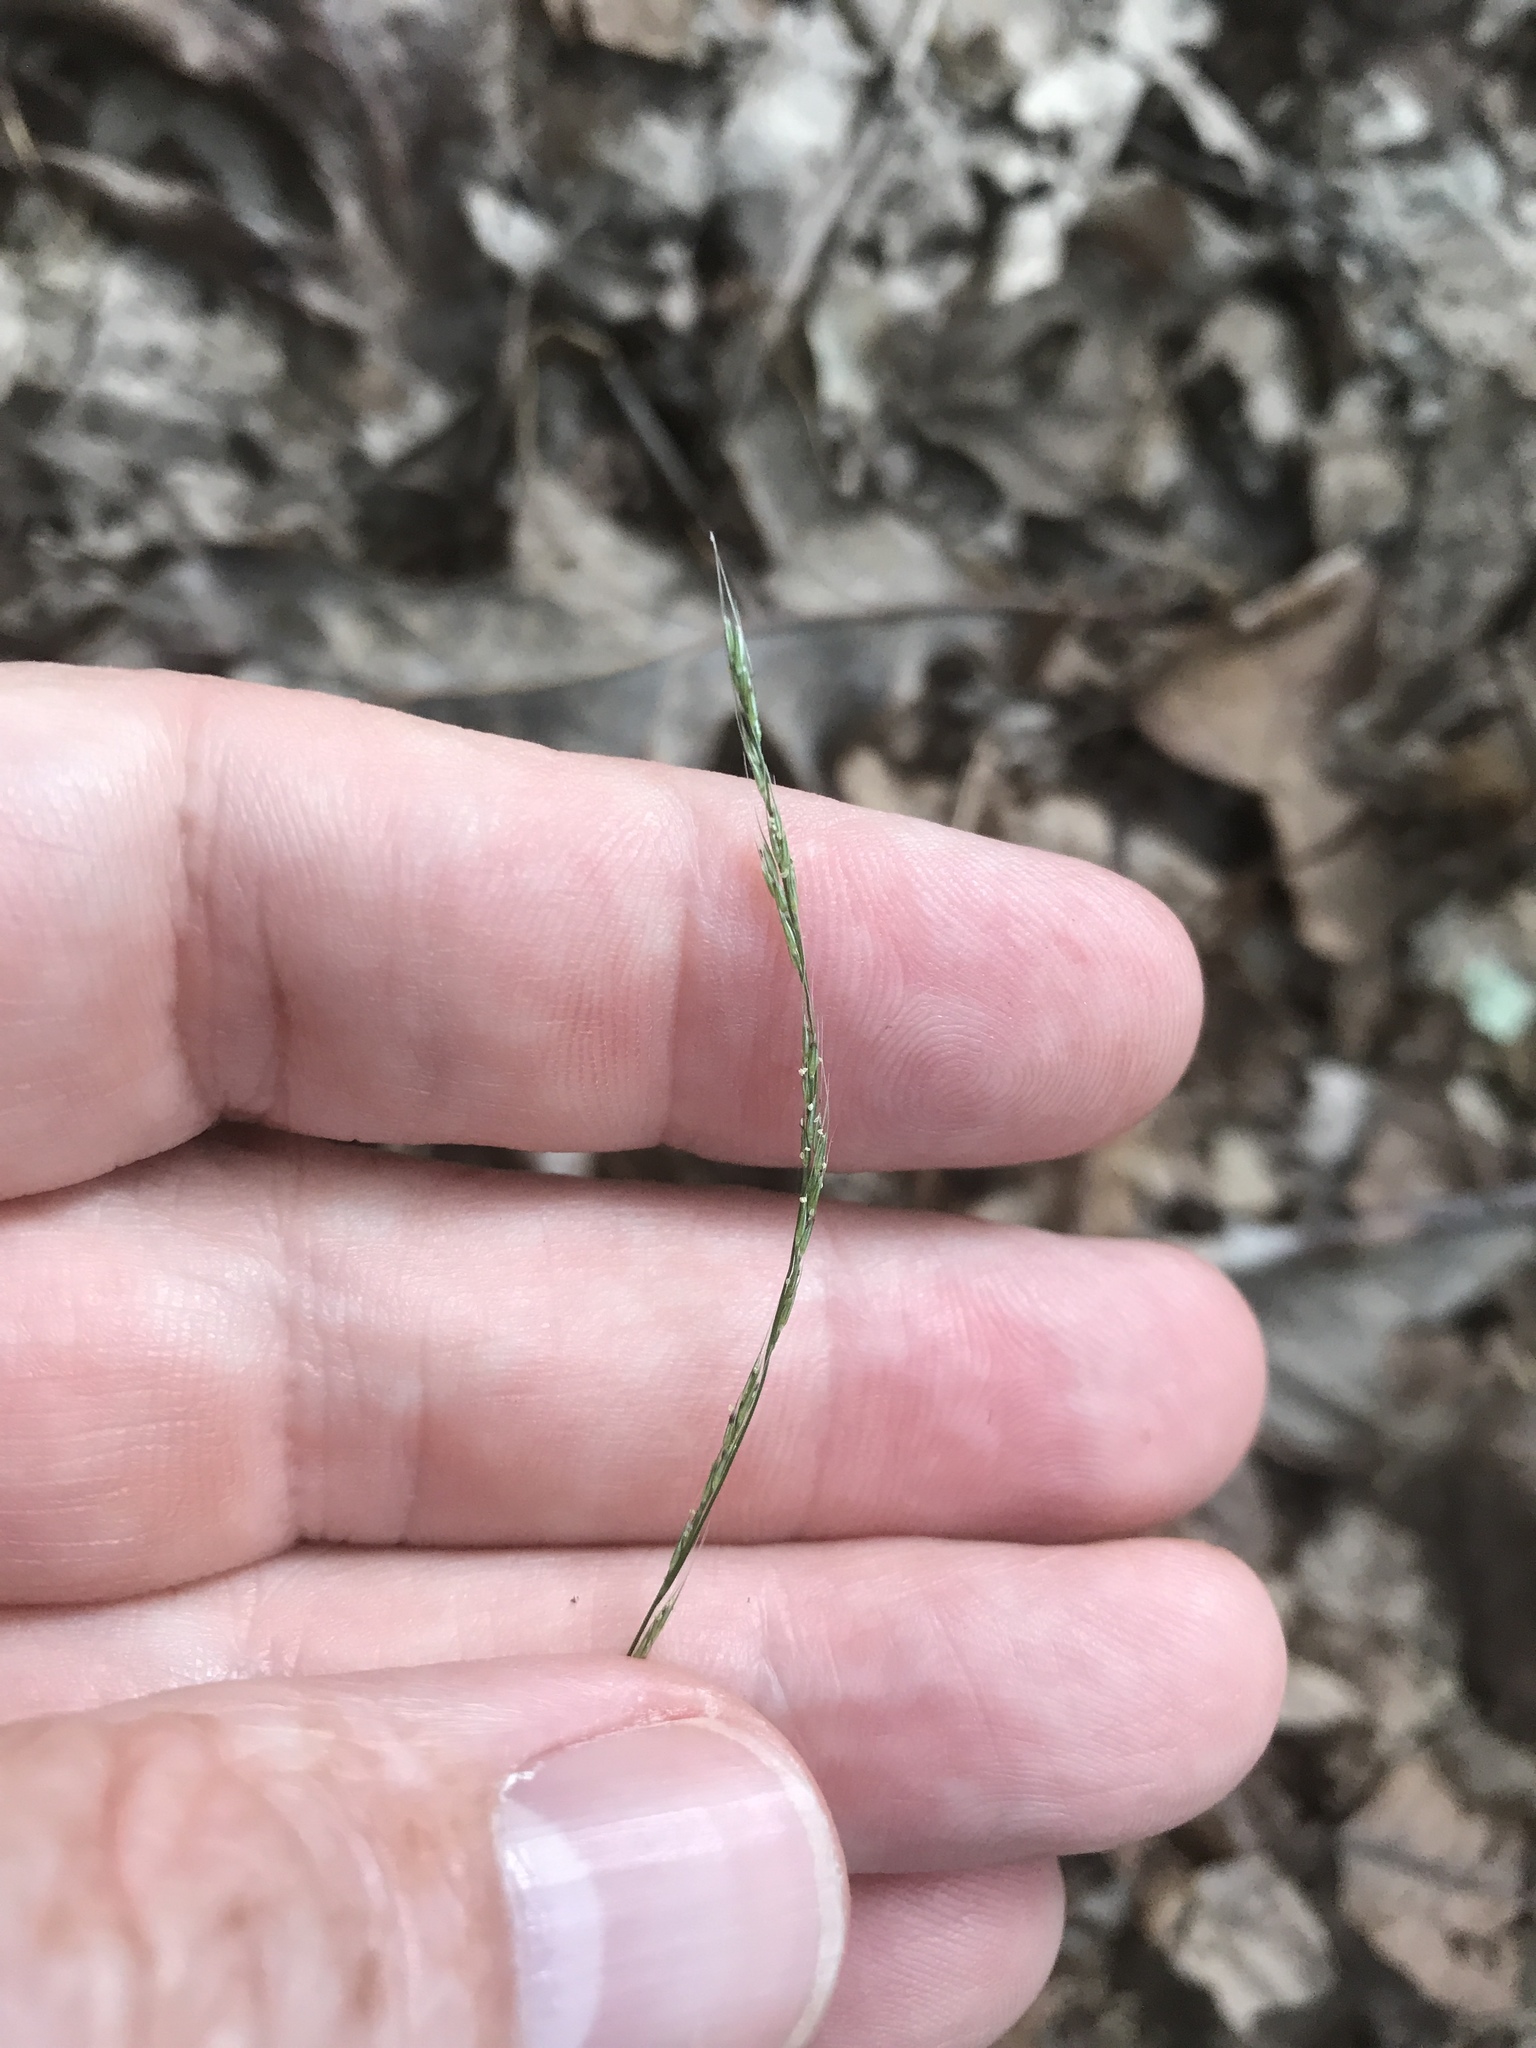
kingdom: Plantae
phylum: Tracheophyta
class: Liliopsida
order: Poales
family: Poaceae
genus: Muhlenbergia
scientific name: Muhlenbergia schreberi
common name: Nimblewill
